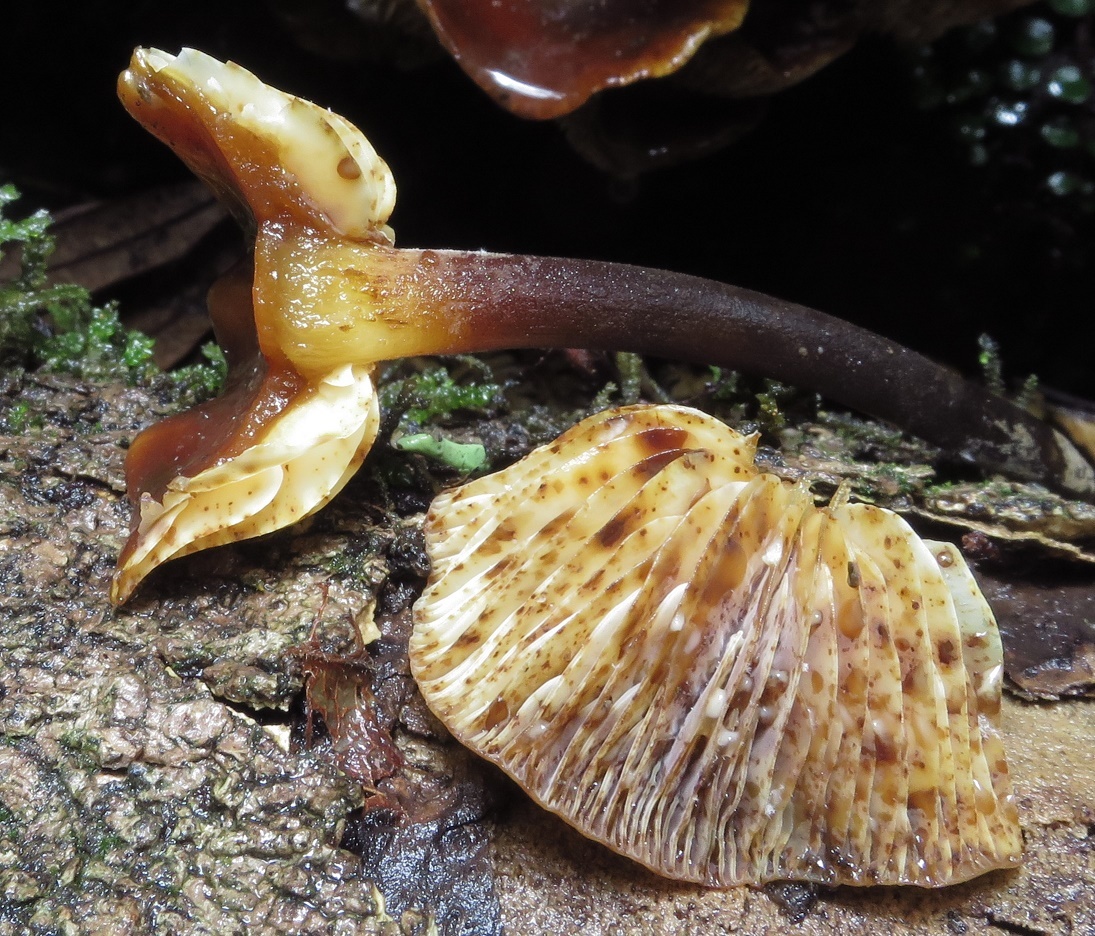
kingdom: Fungi
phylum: Basidiomycota
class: Agaricomycetes
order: Agaricales
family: Physalacriaceae
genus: Flammulina
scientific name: Flammulina velutipes
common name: Velvet shank
